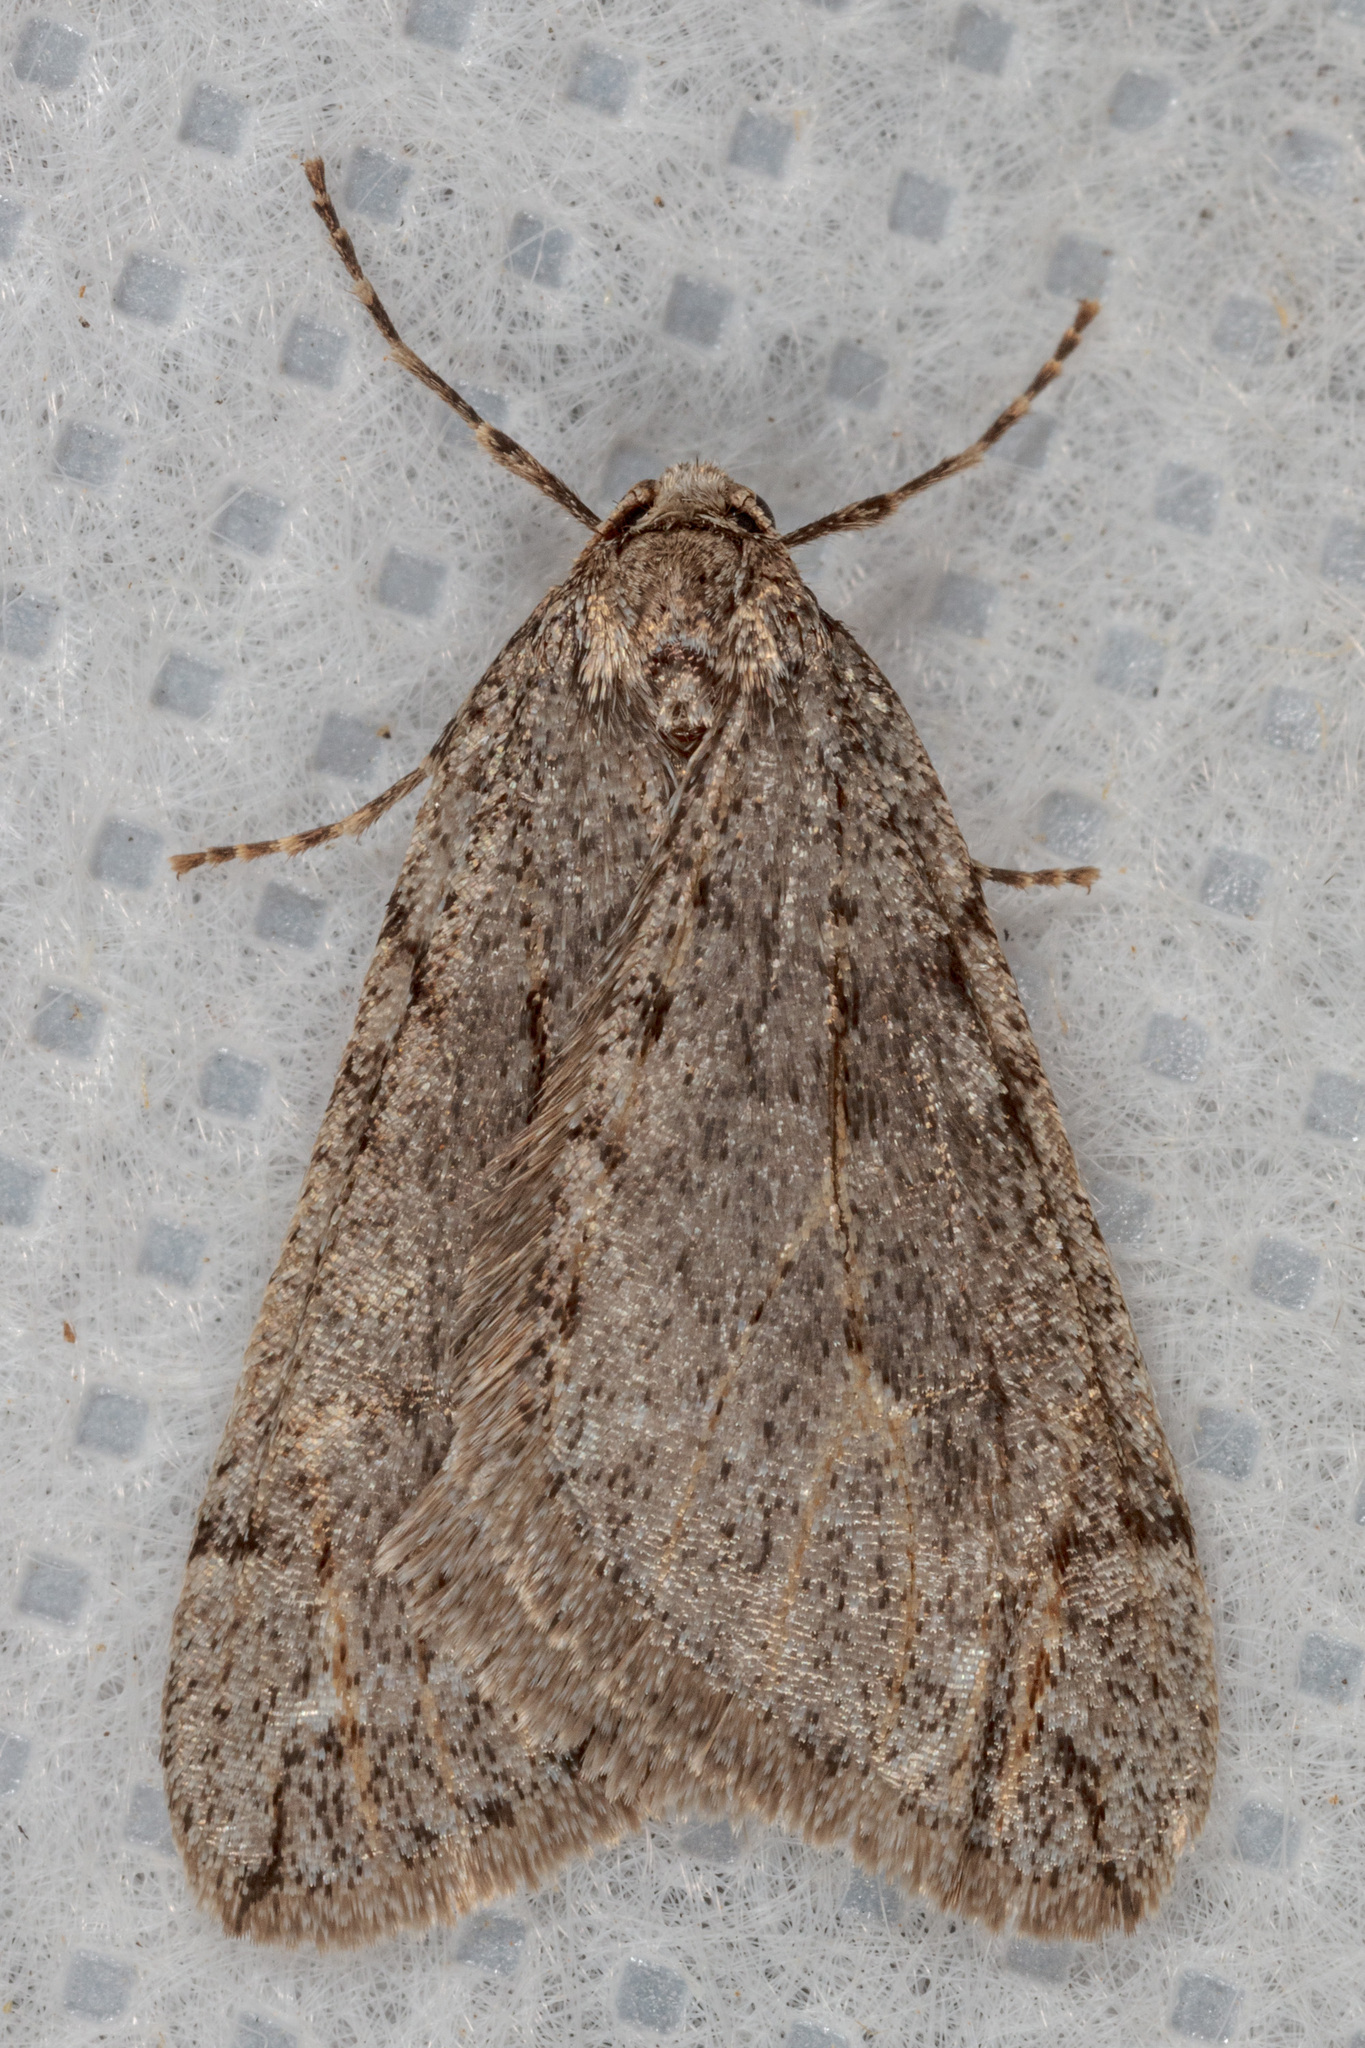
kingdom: Animalia
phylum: Arthropoda
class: Insecta
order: Lepidoptera
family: Geometridae
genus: Paleacrita
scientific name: Paleacrita vernata
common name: Spring cankerworm
